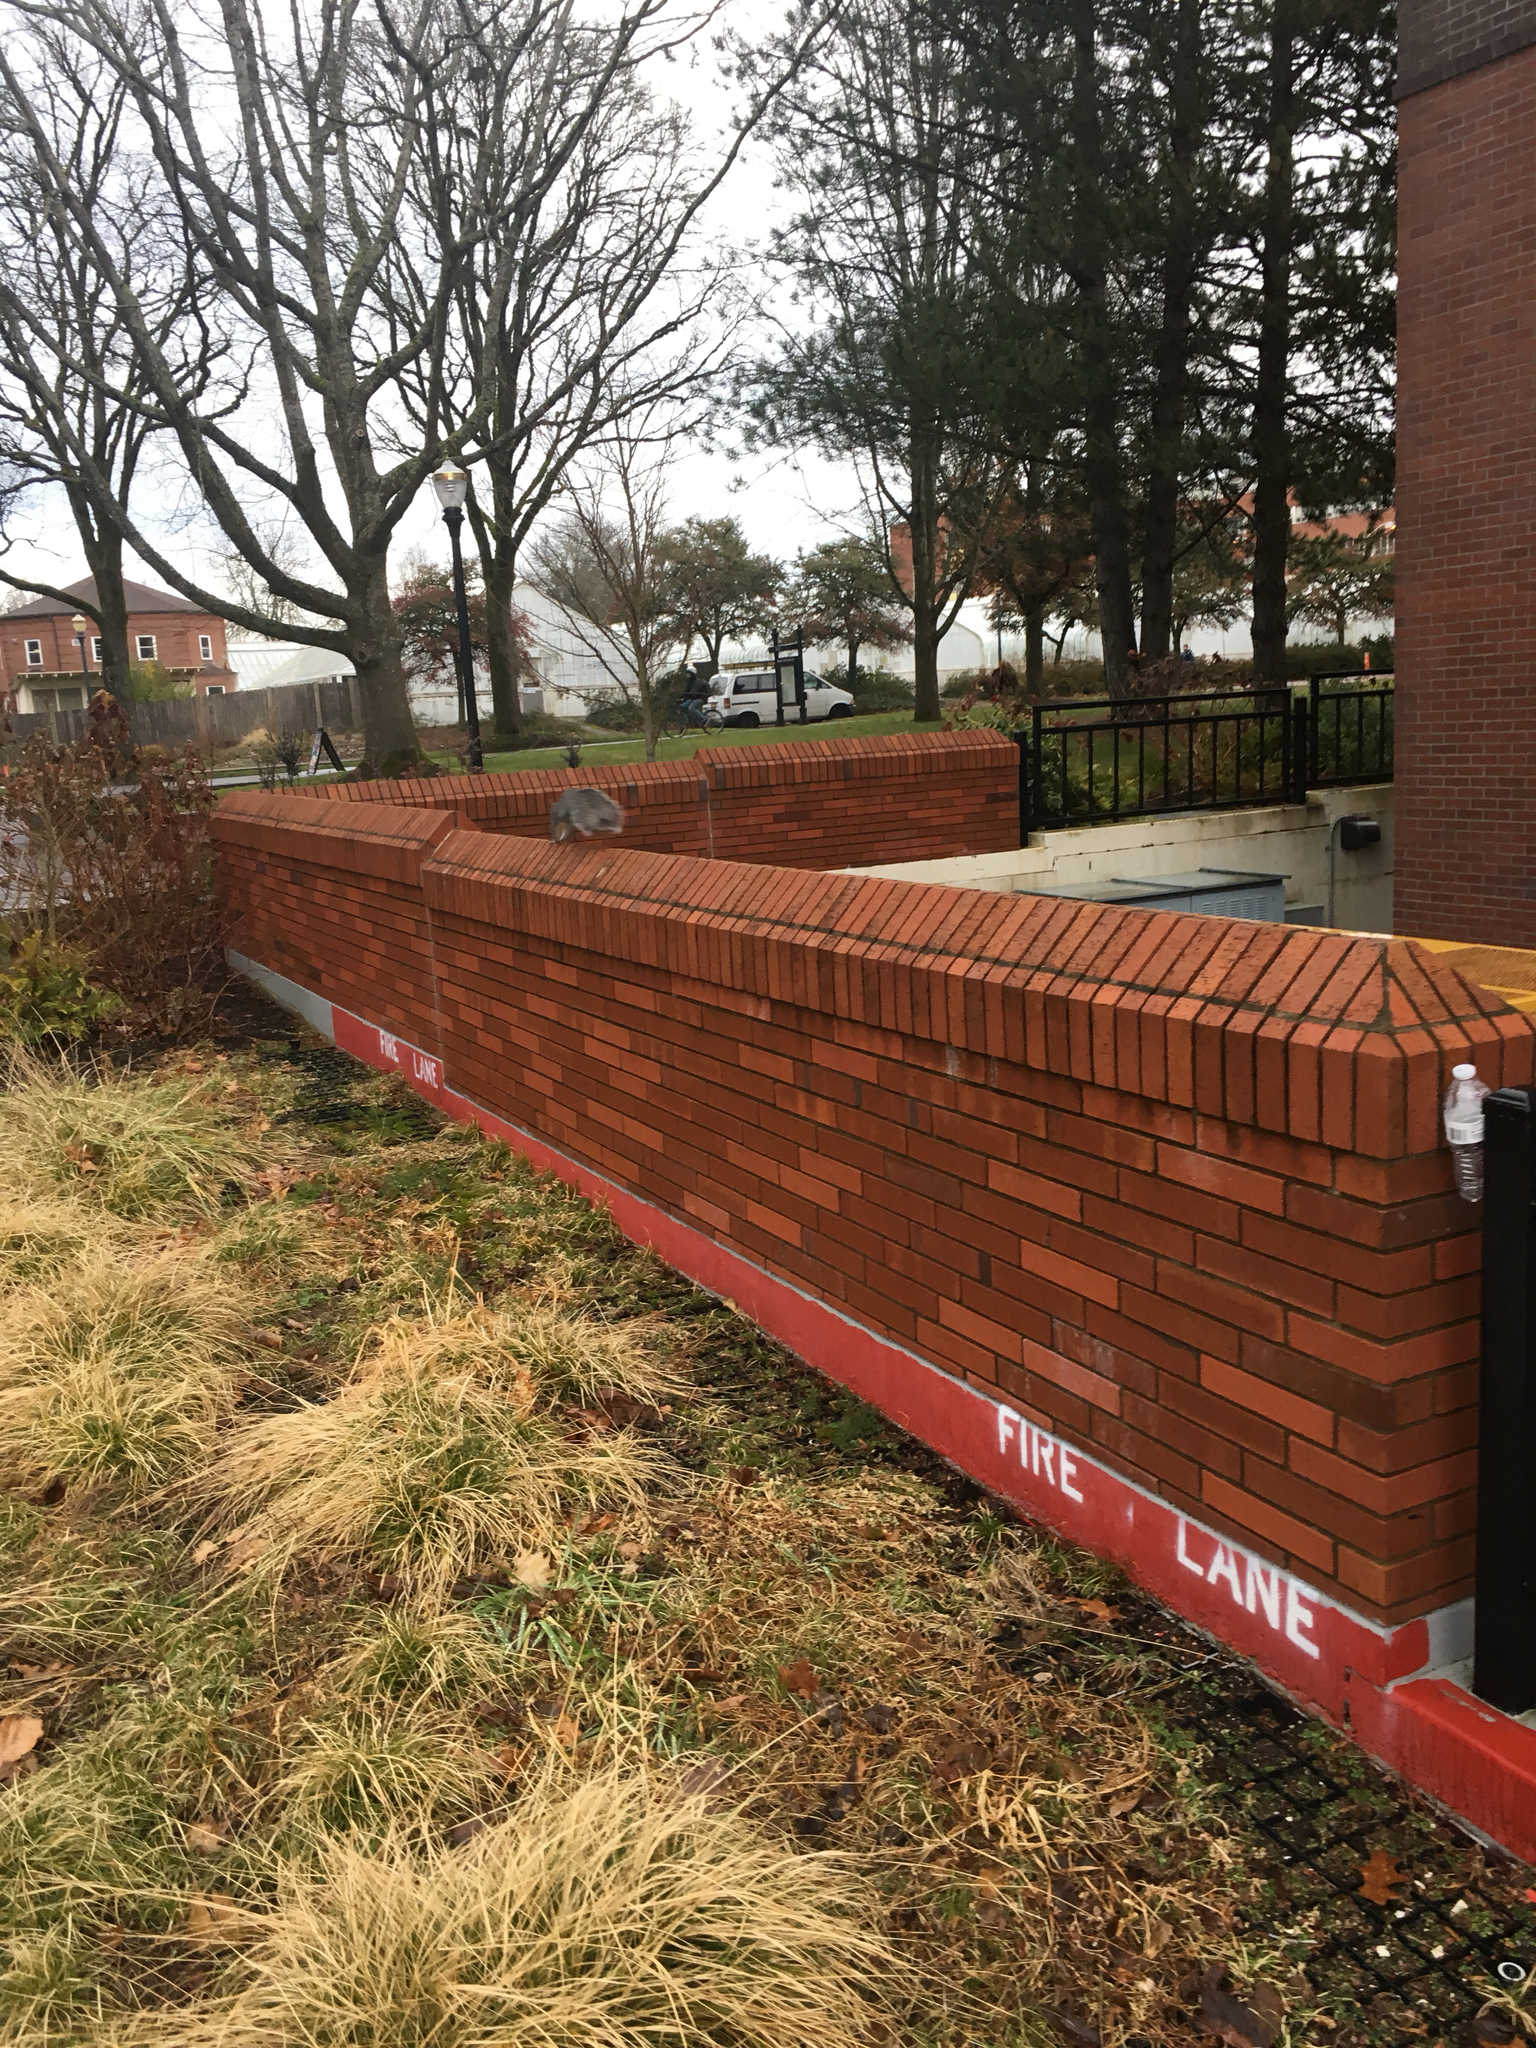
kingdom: Animalia
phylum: Chordata
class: Mammalia
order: Rodentia
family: Sciuridae
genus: Sciurus
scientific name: Sciurus griseus
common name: Western gray squirrel
